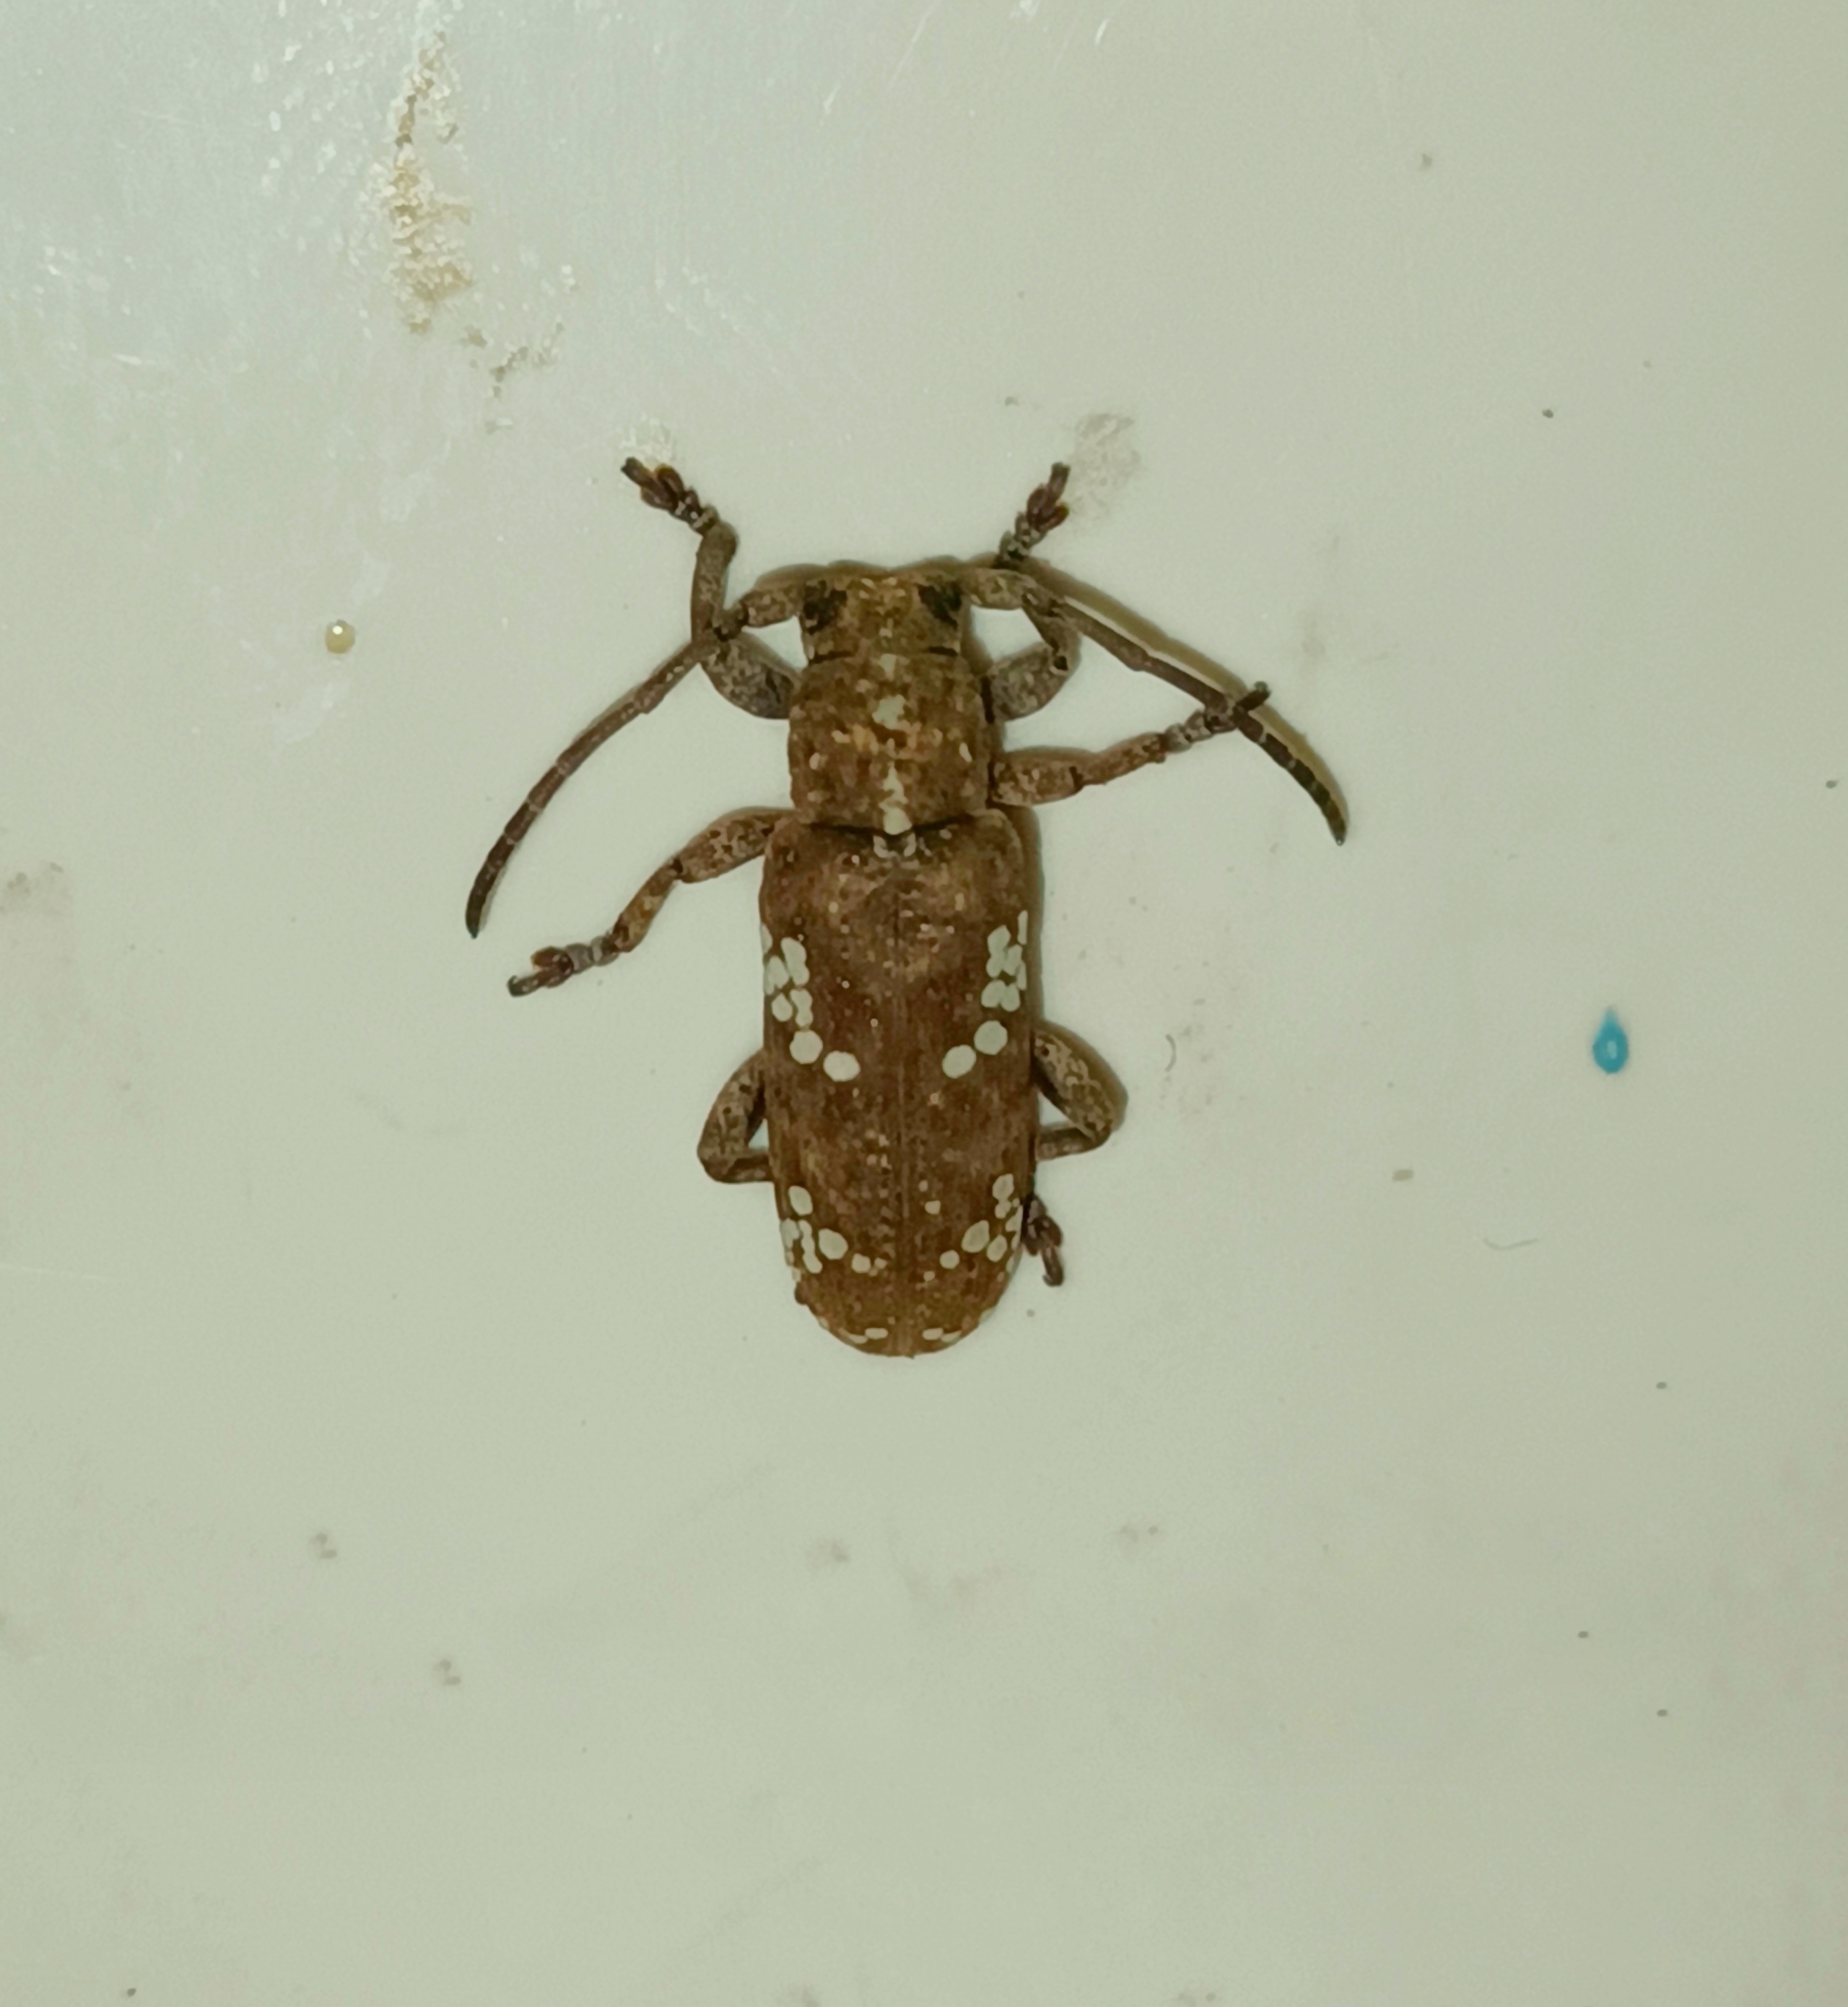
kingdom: Animalia
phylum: Arthropoda
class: Insecta
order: Coleoptera
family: Cerambycidae
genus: Apomecyna
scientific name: Apomecyna saltator
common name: Pointed gourd vine borer
